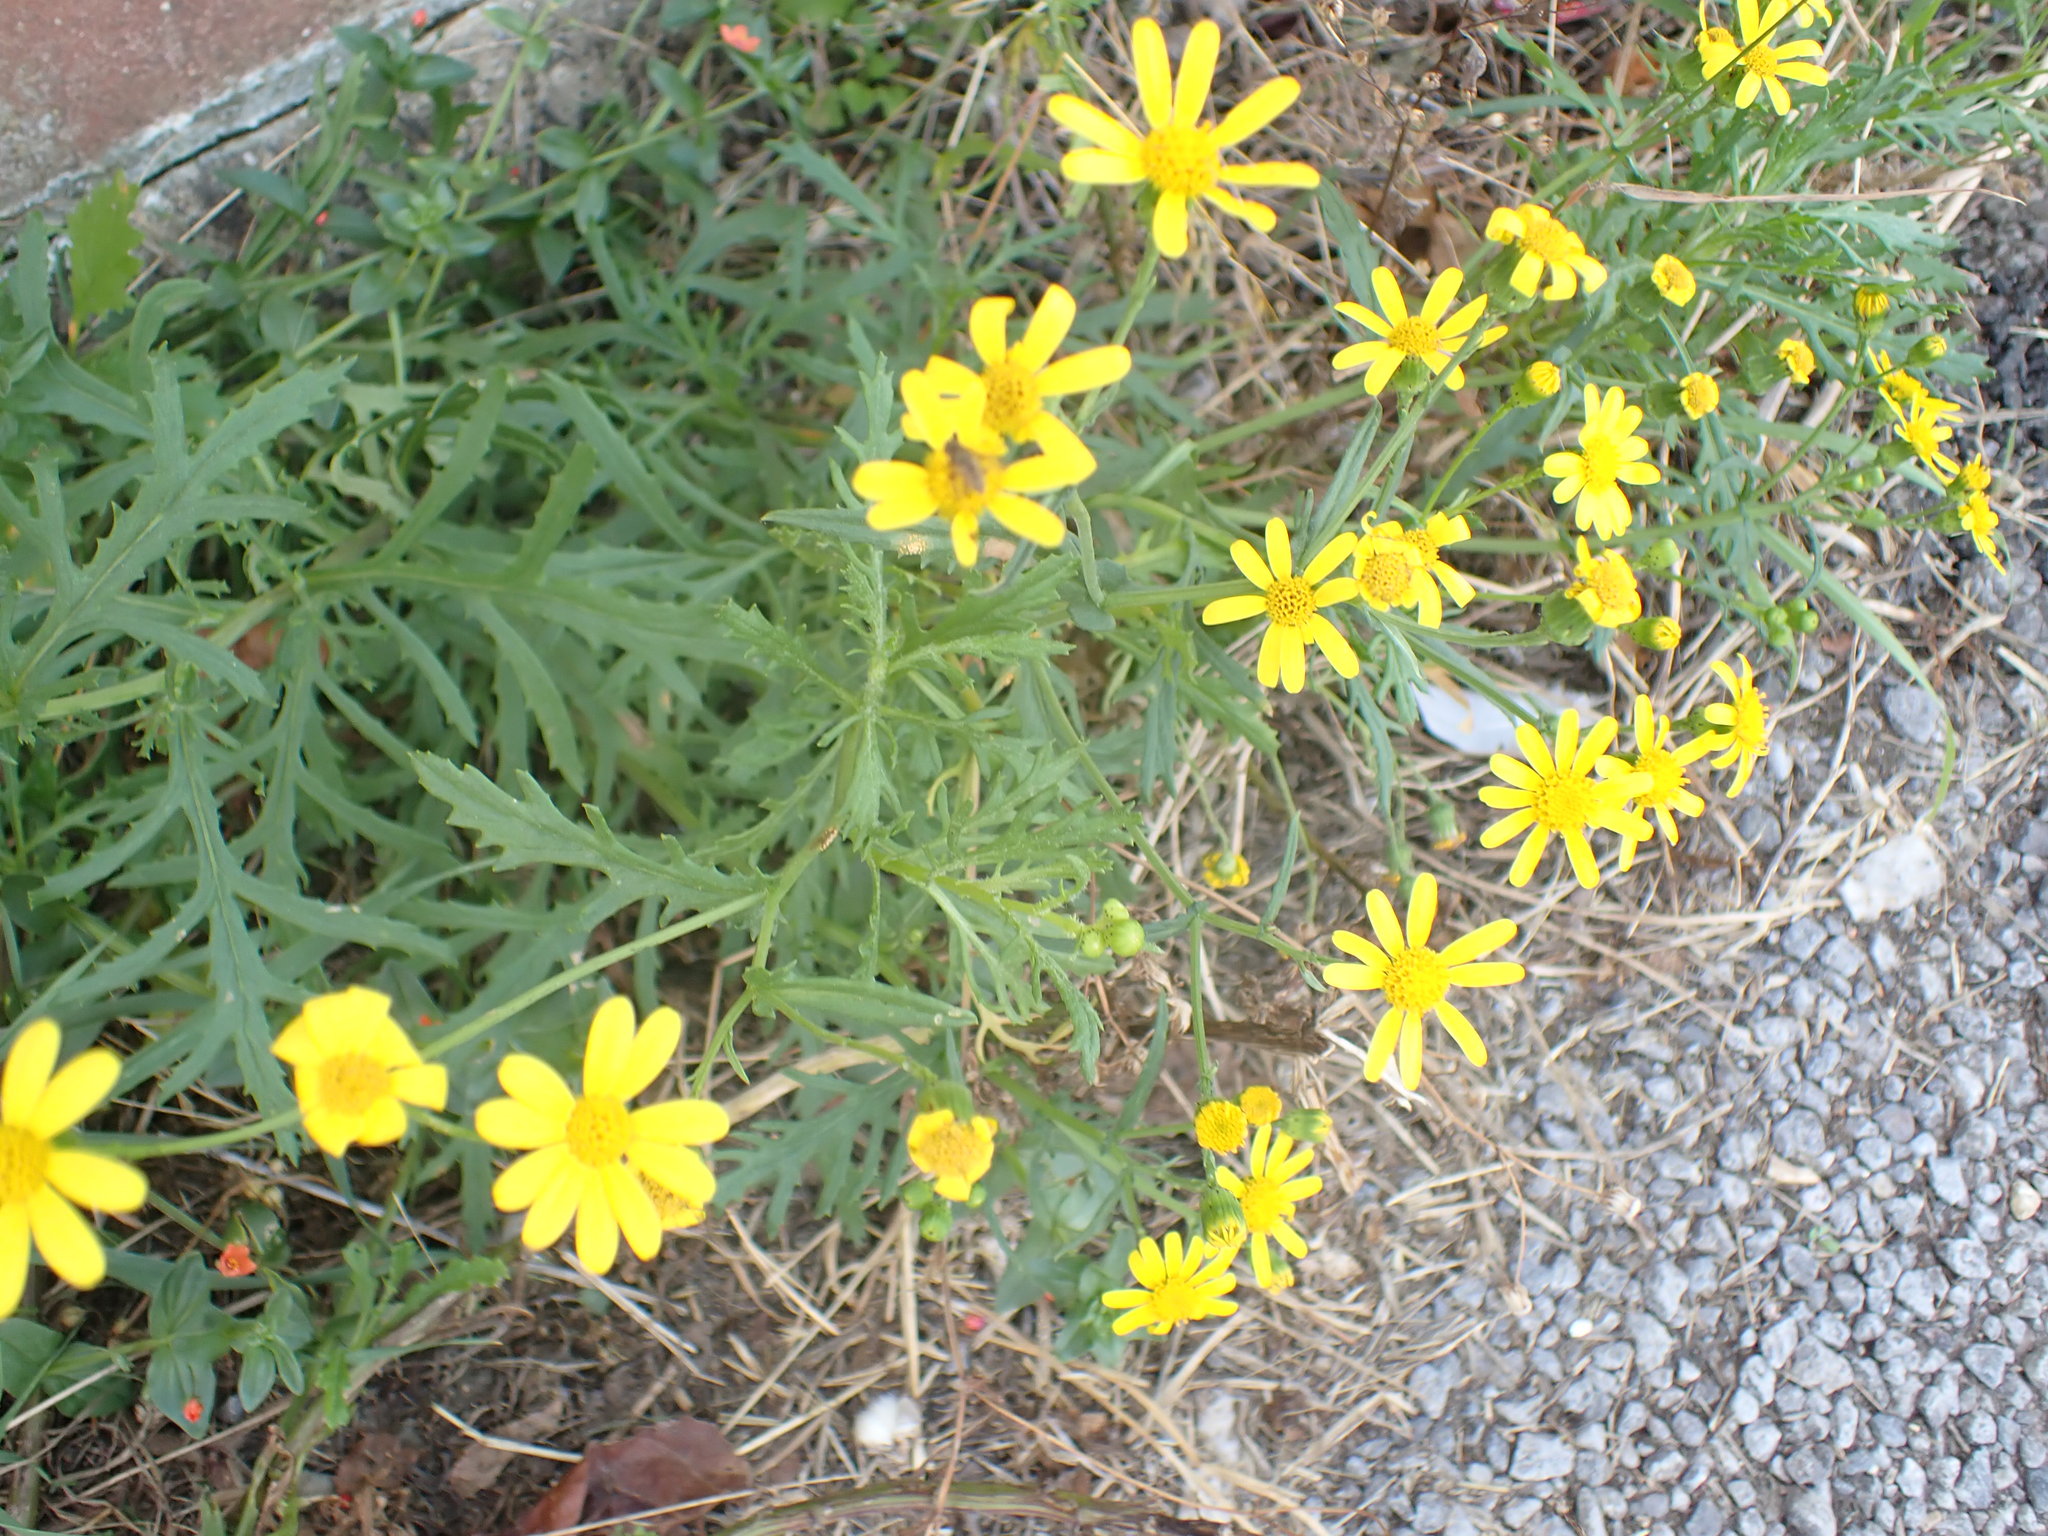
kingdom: Plantae
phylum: Tracheophyta
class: Magnoliopsida
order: Asterales
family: Asteraceae
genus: Senecio
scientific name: Senecio squalidus
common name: Oxford ragwort
